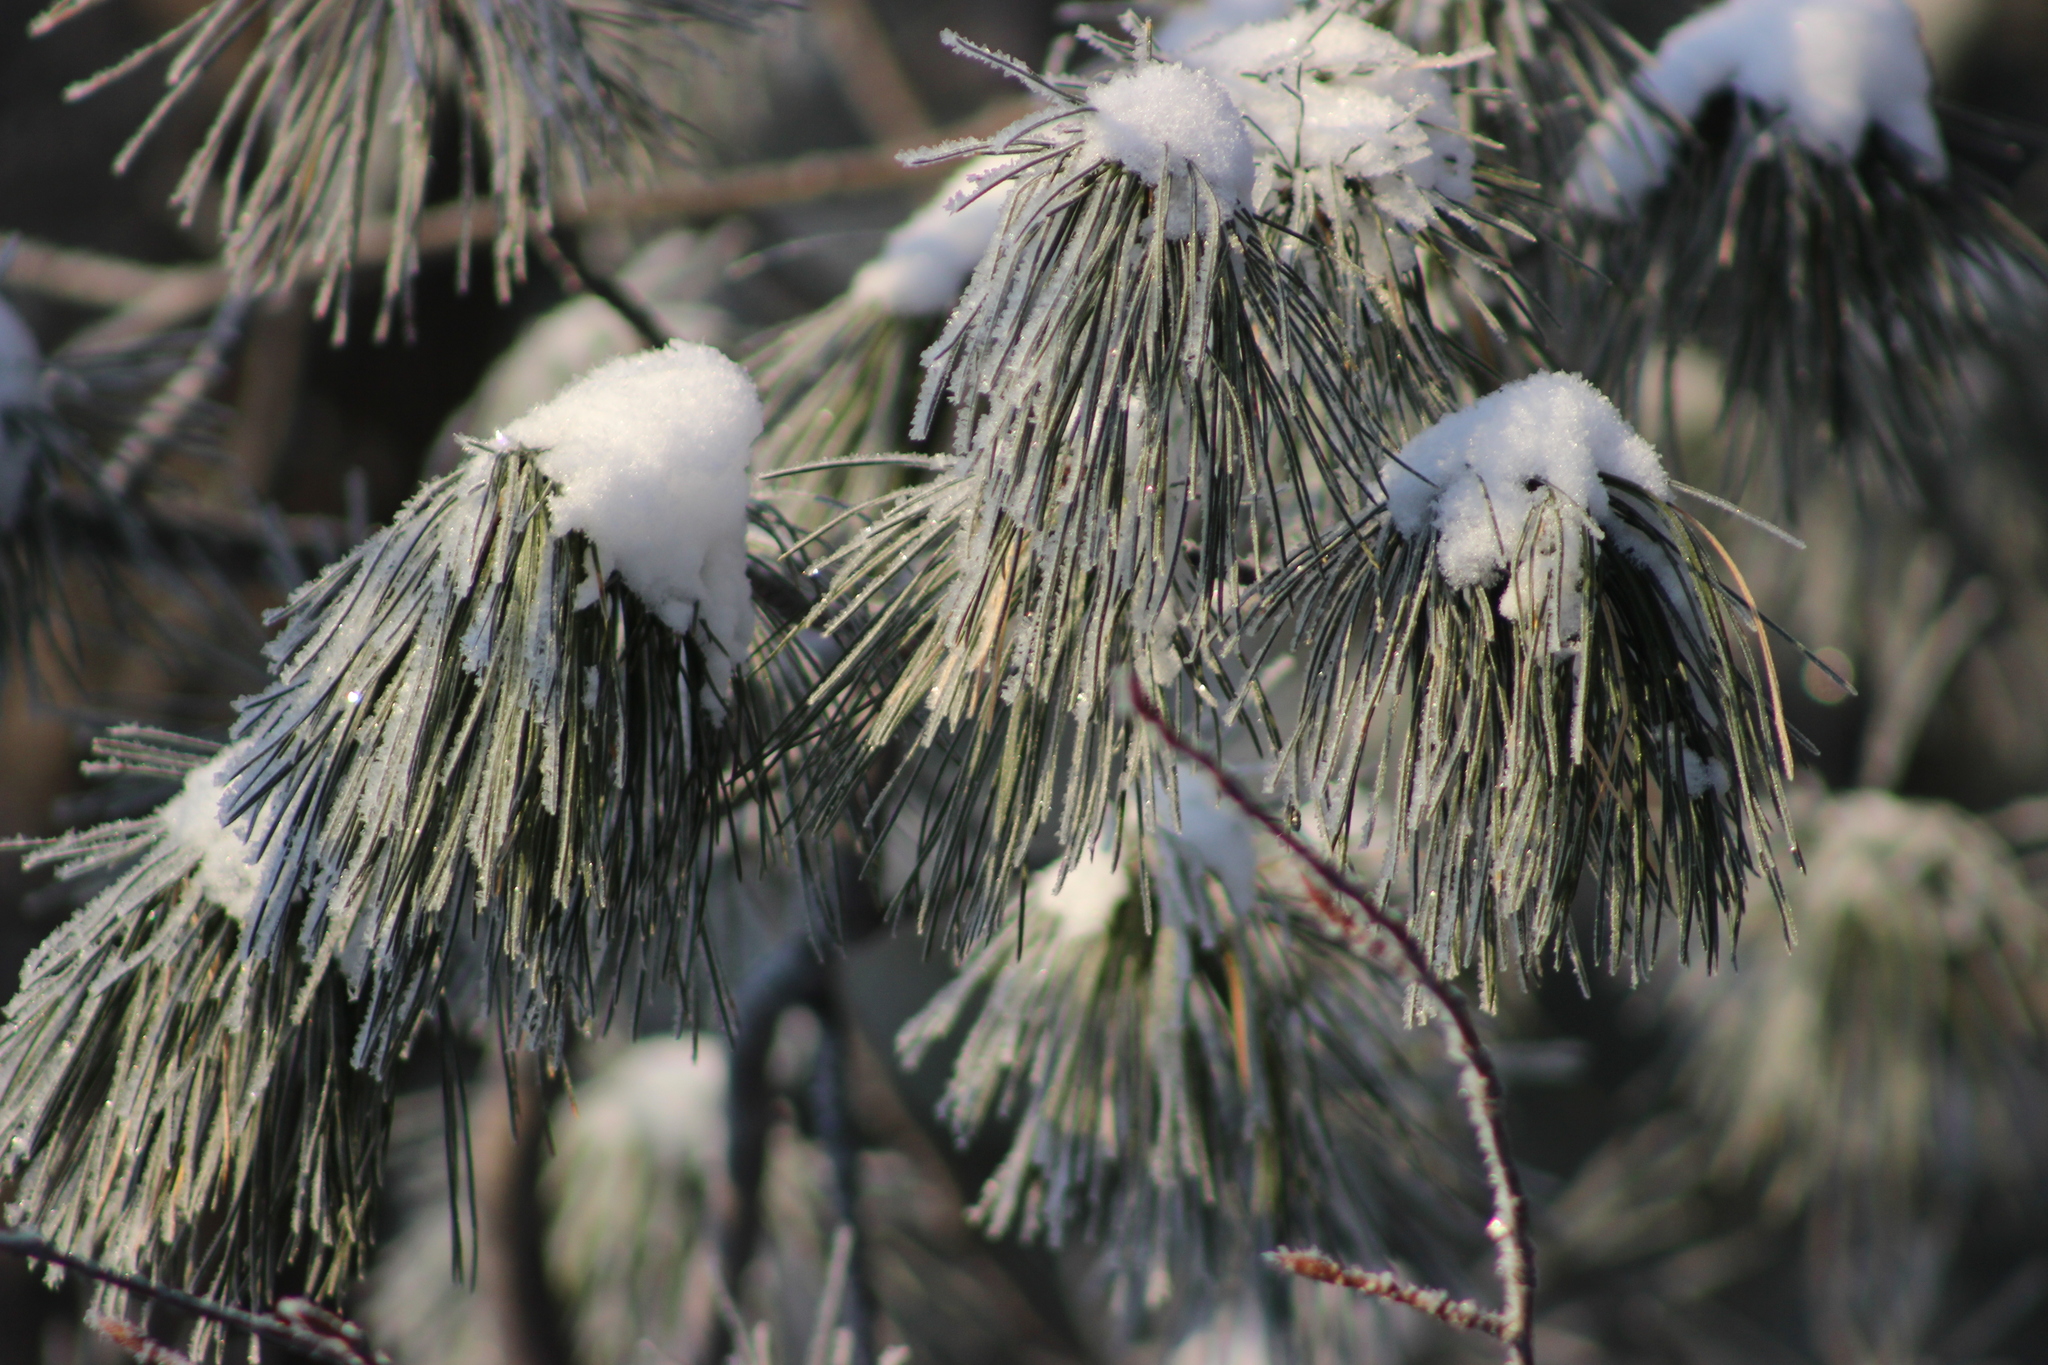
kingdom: Plantae
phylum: Tracheophyta
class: Pinopsida
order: Pinales
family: Pinaceae
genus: Pinus
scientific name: Pinus sibirica
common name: Siberian pine
